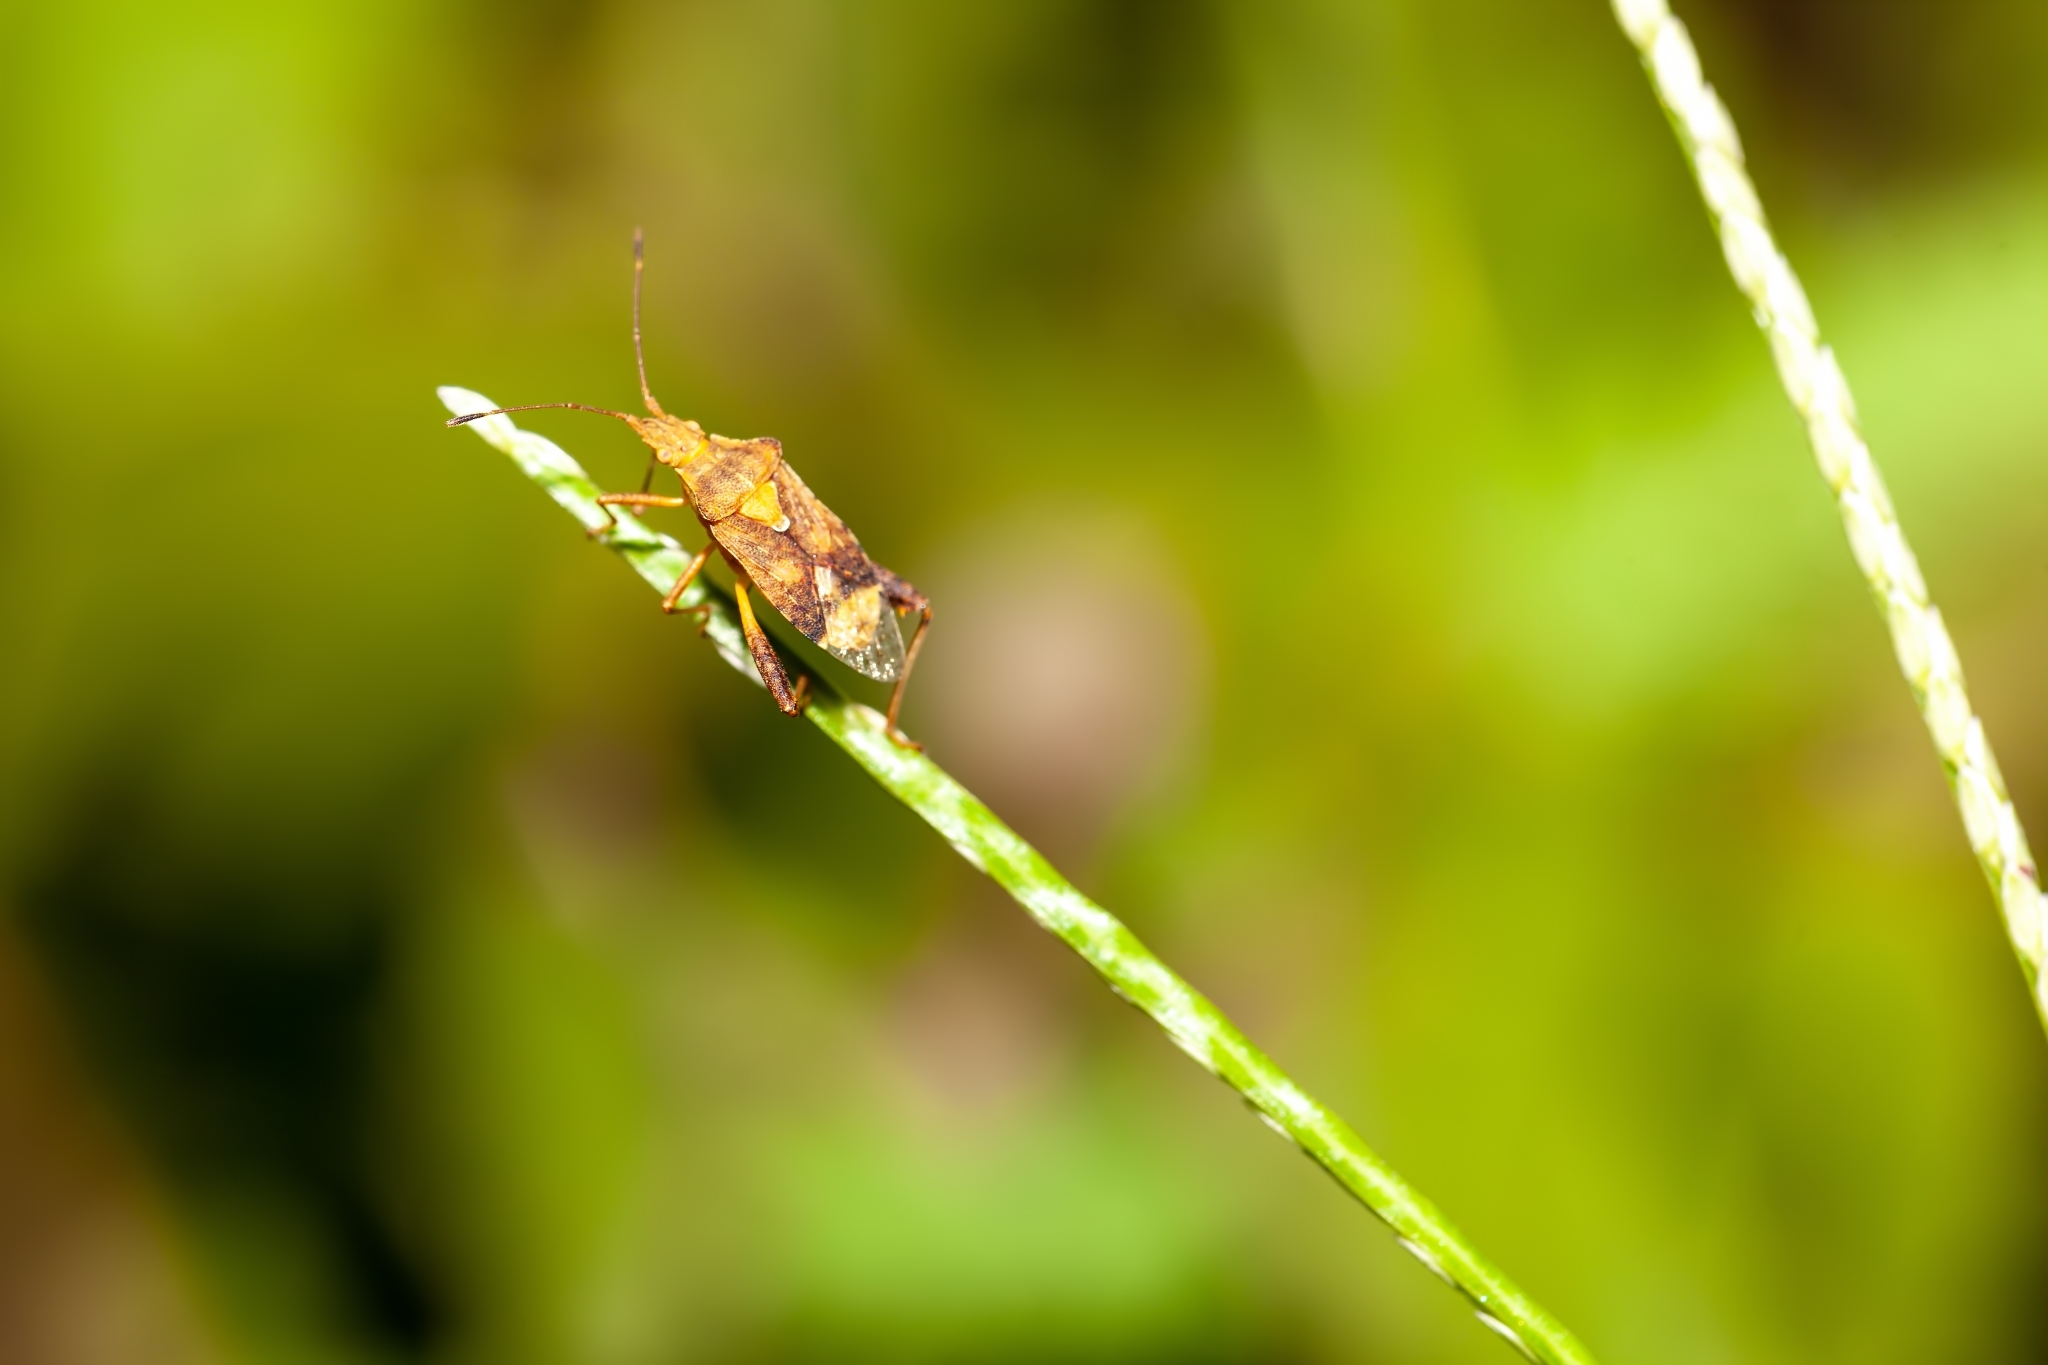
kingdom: Animalia
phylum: Arthropoda
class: Insecta
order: Hemiptera
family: Rhopalidae
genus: Harmostes
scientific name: Harmostes serratus
